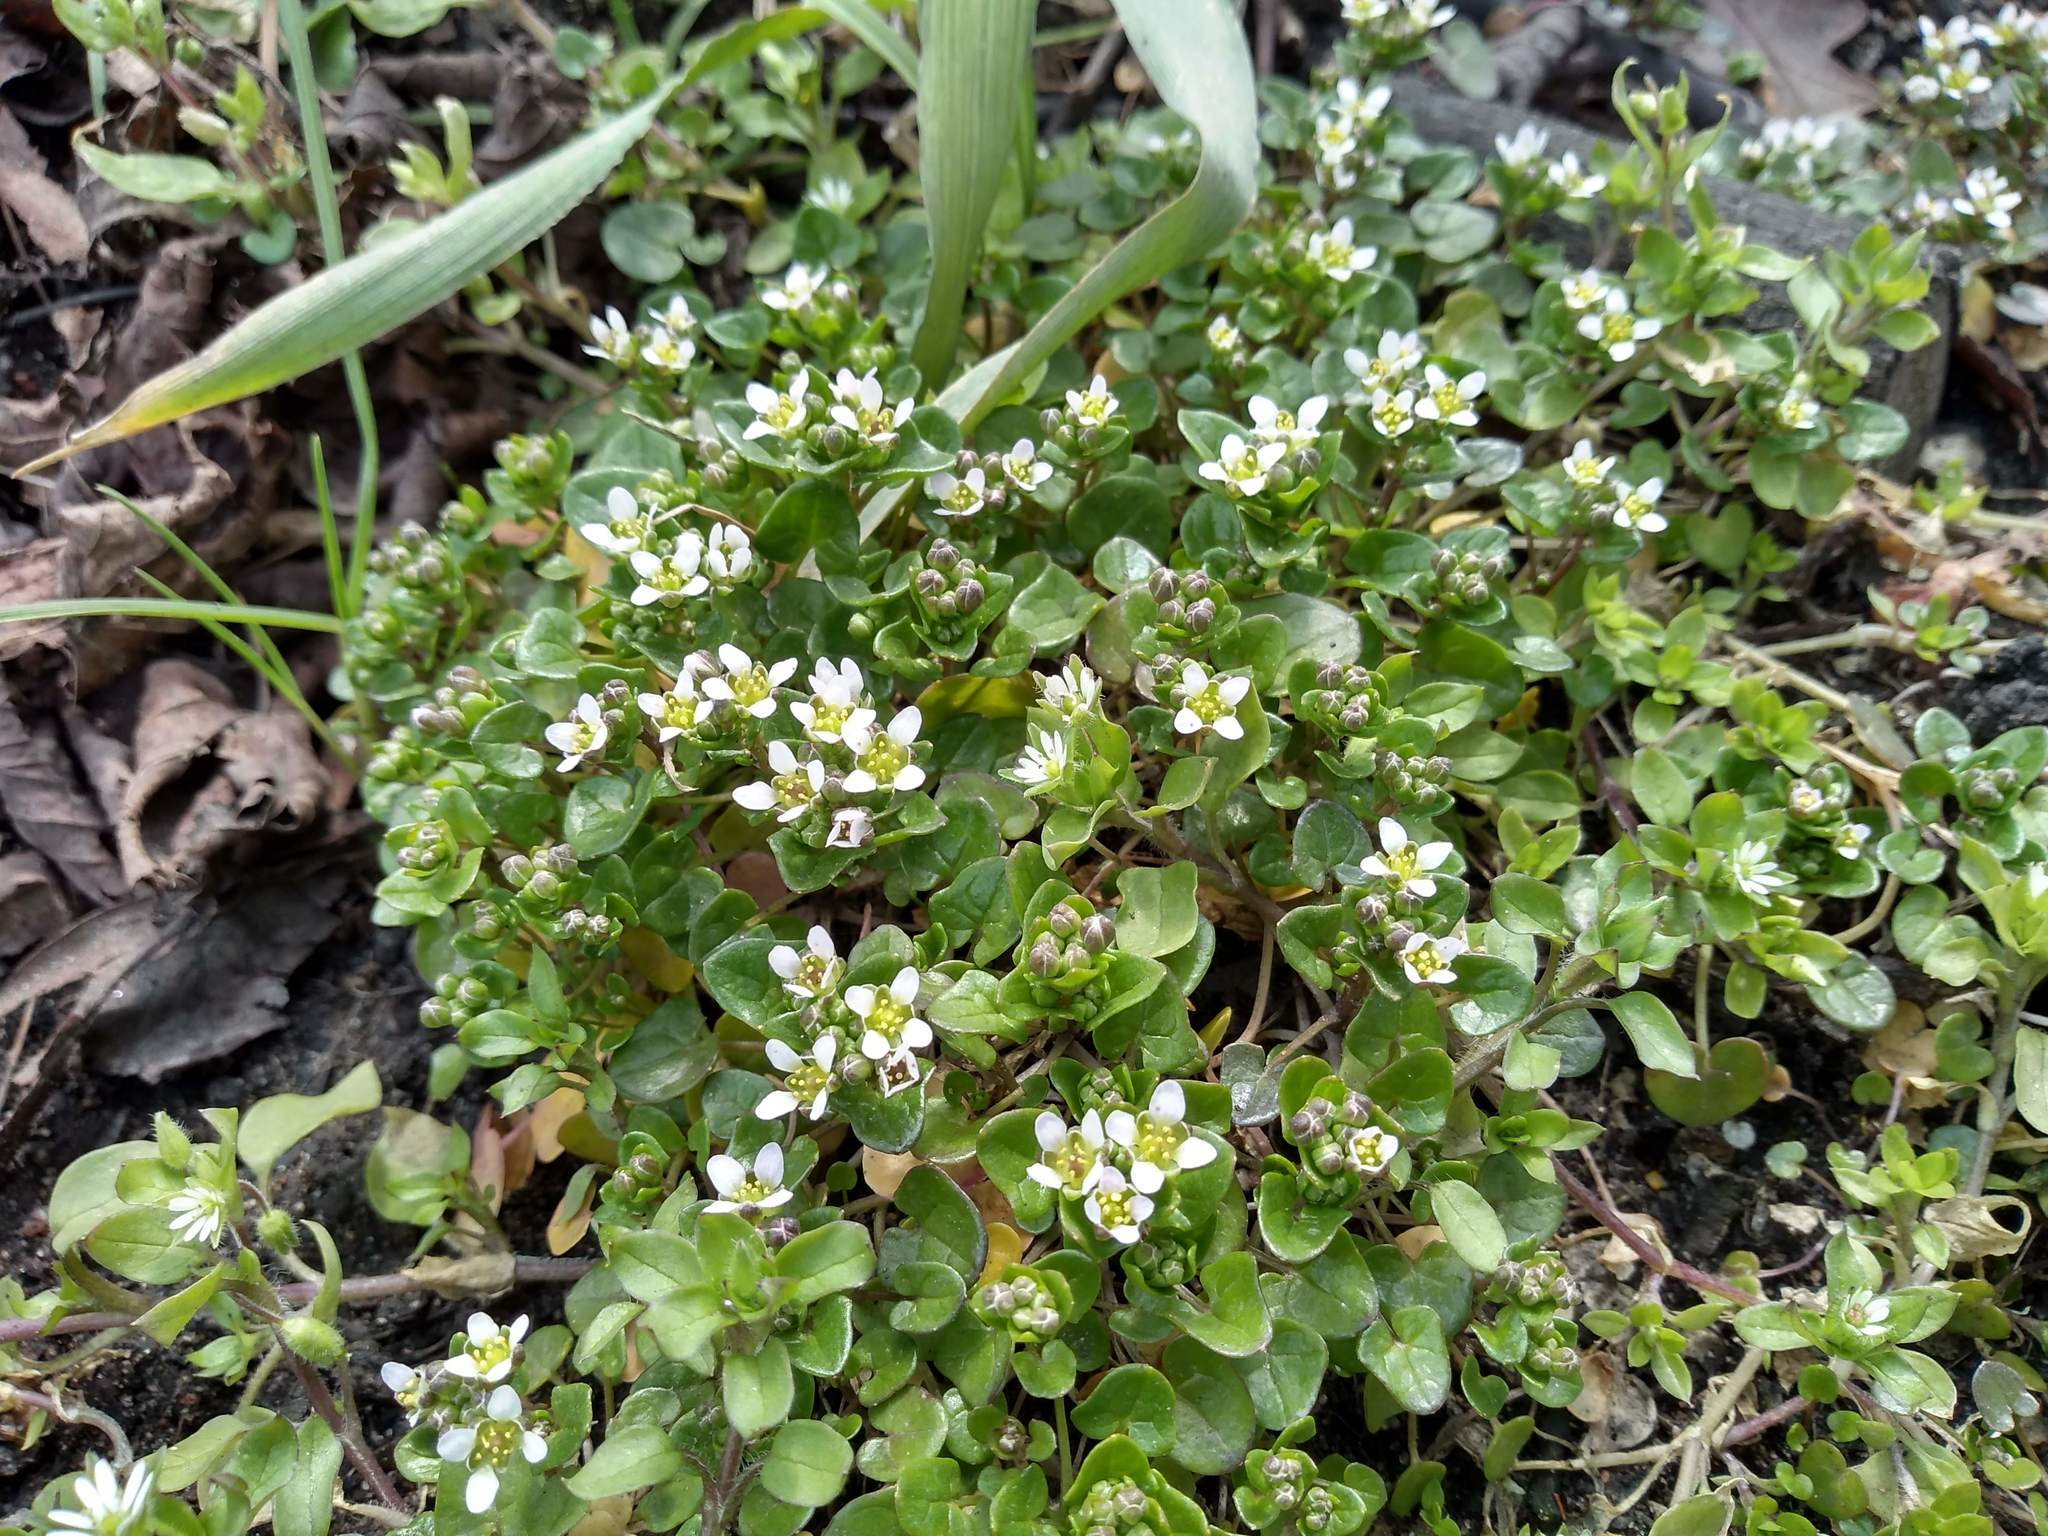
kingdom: Plantae
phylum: Tracheophyta
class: Magnoliopsida
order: Brassicales
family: Brassicaceae
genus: Cochlearia
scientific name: Cochlearia danica
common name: Early scurvygrass
